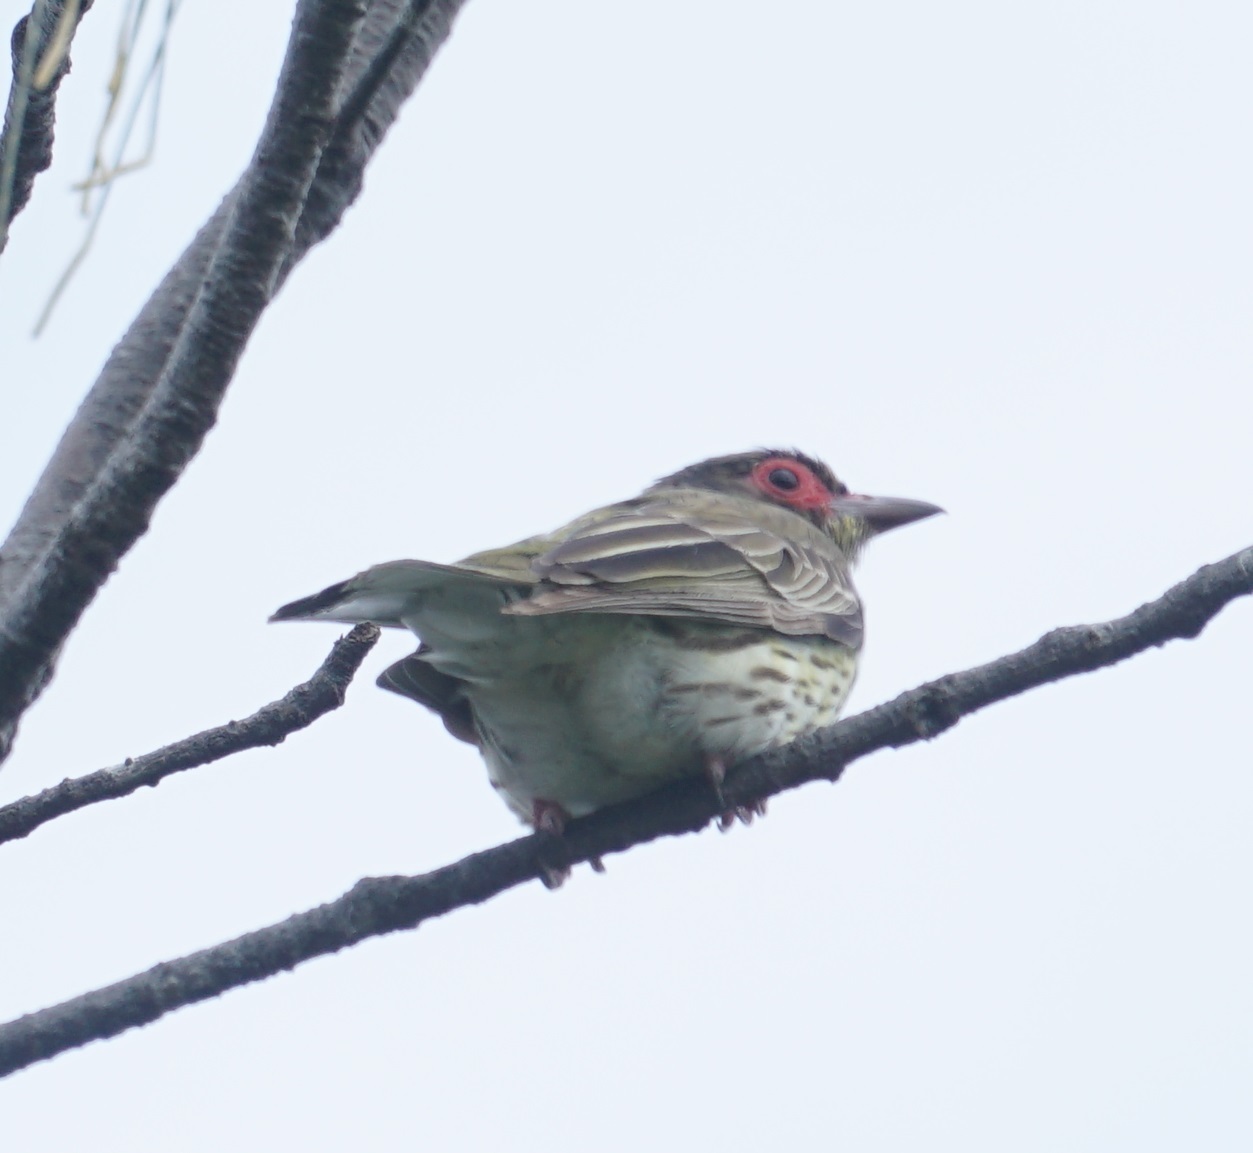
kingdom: Animalia
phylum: Chordata
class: Aves
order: Passeriformes
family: Oriolidae
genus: Sphecotheres
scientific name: Sphecotheres vieilloti
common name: Australasian figbird
